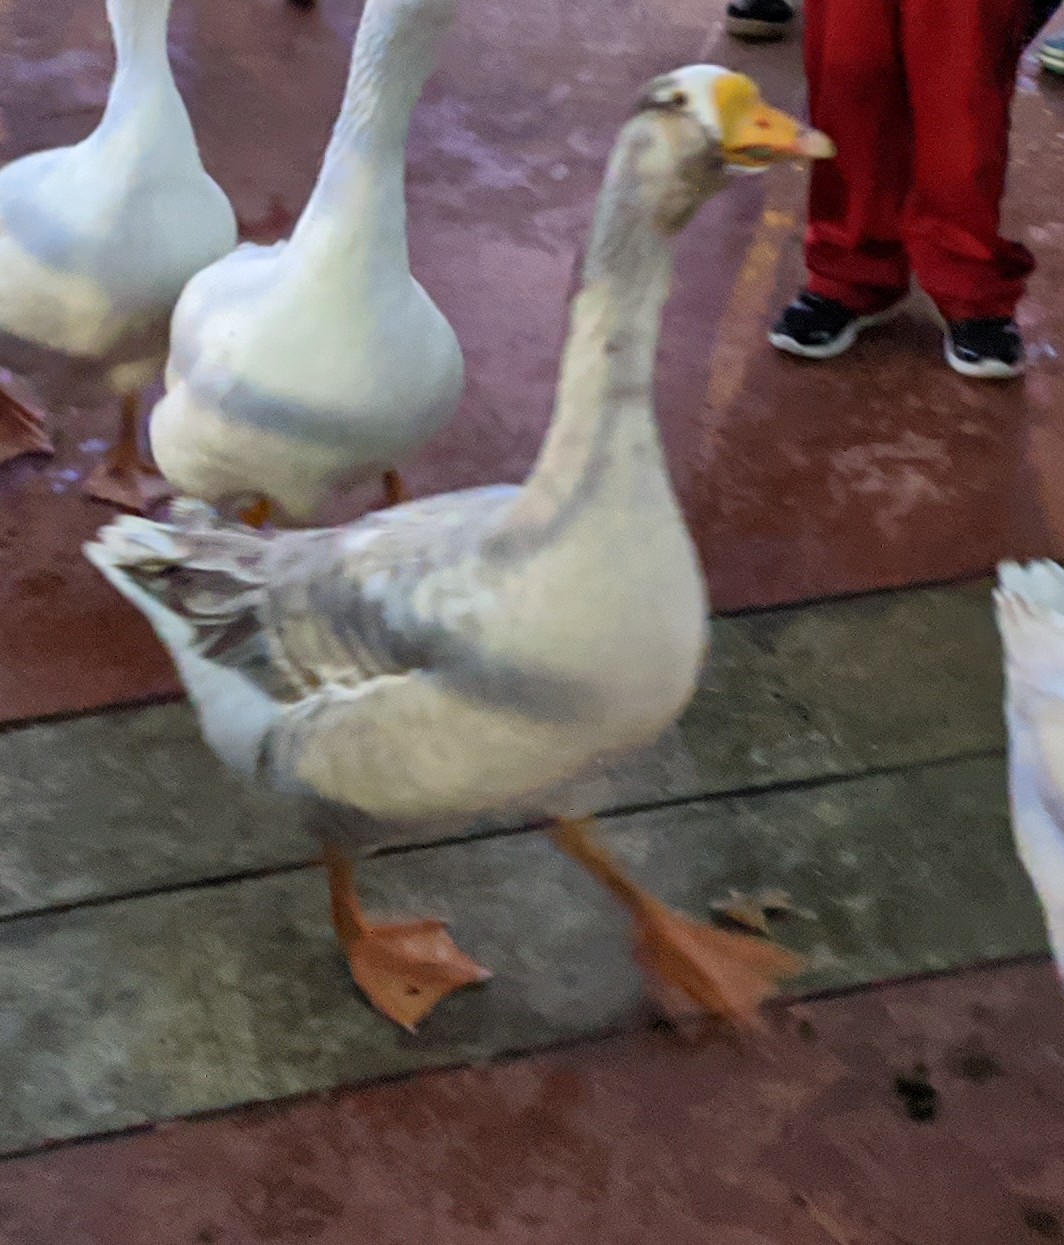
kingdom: Animalia
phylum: Chordata
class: Aves
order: Anseriformes
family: Anatidae
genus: Anser
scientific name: Anser
